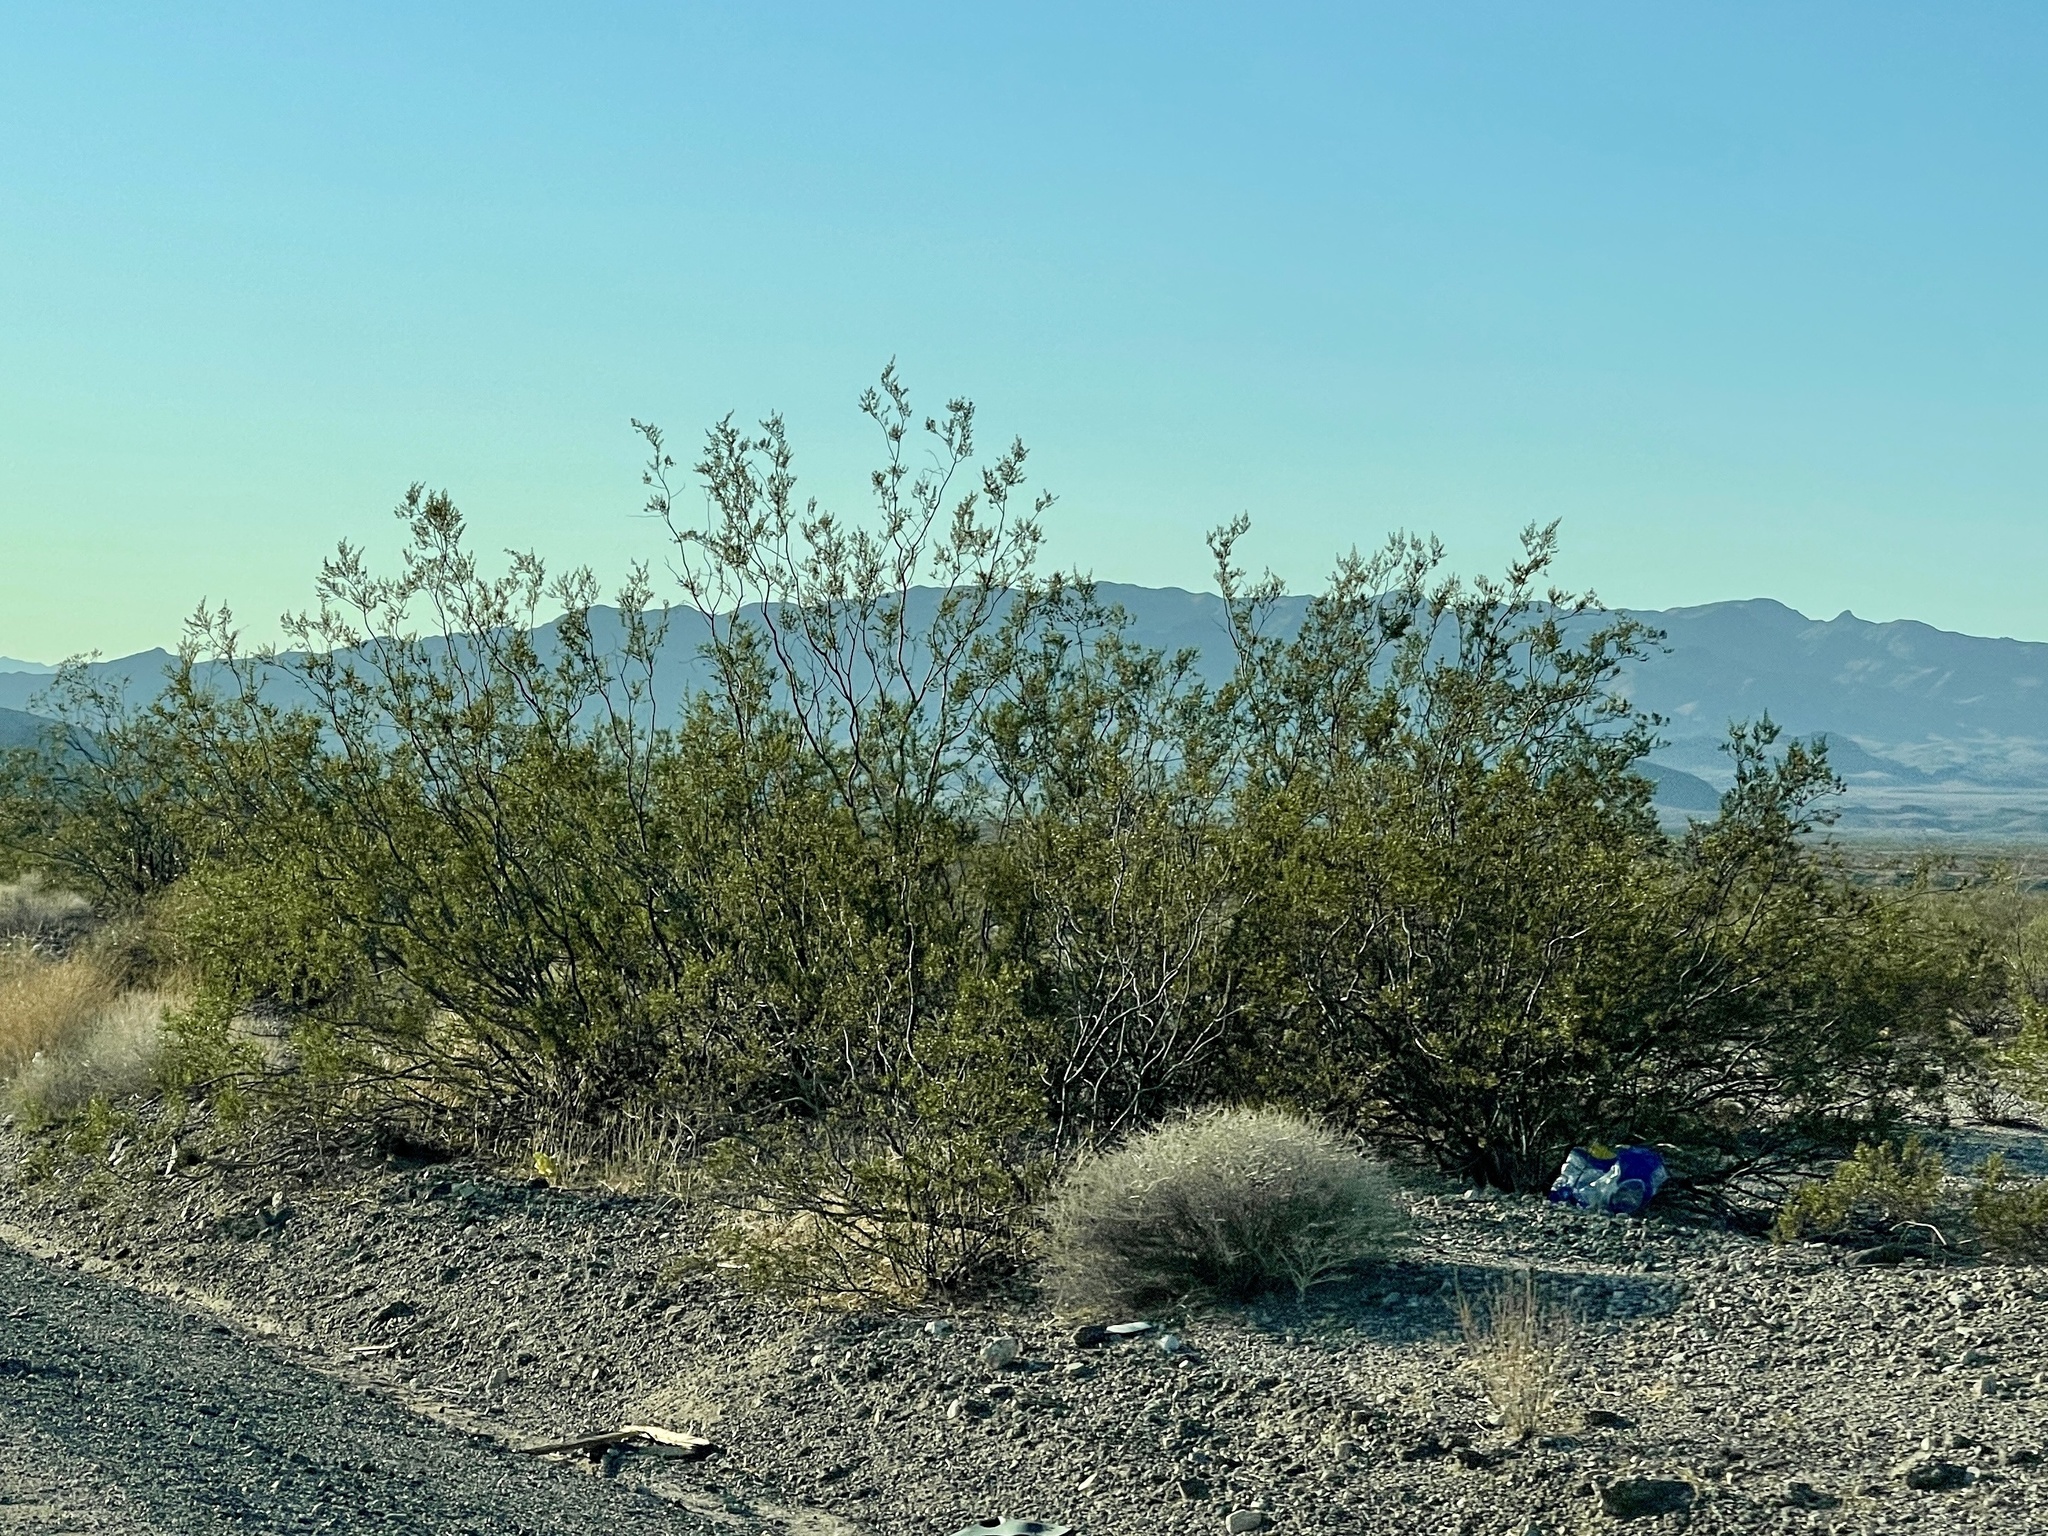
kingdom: Plantae
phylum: Tracheophyta
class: Magnoliopsida
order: Zygophyllales
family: Zygophyllaceae
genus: Larrea
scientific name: Larrea tridentata
